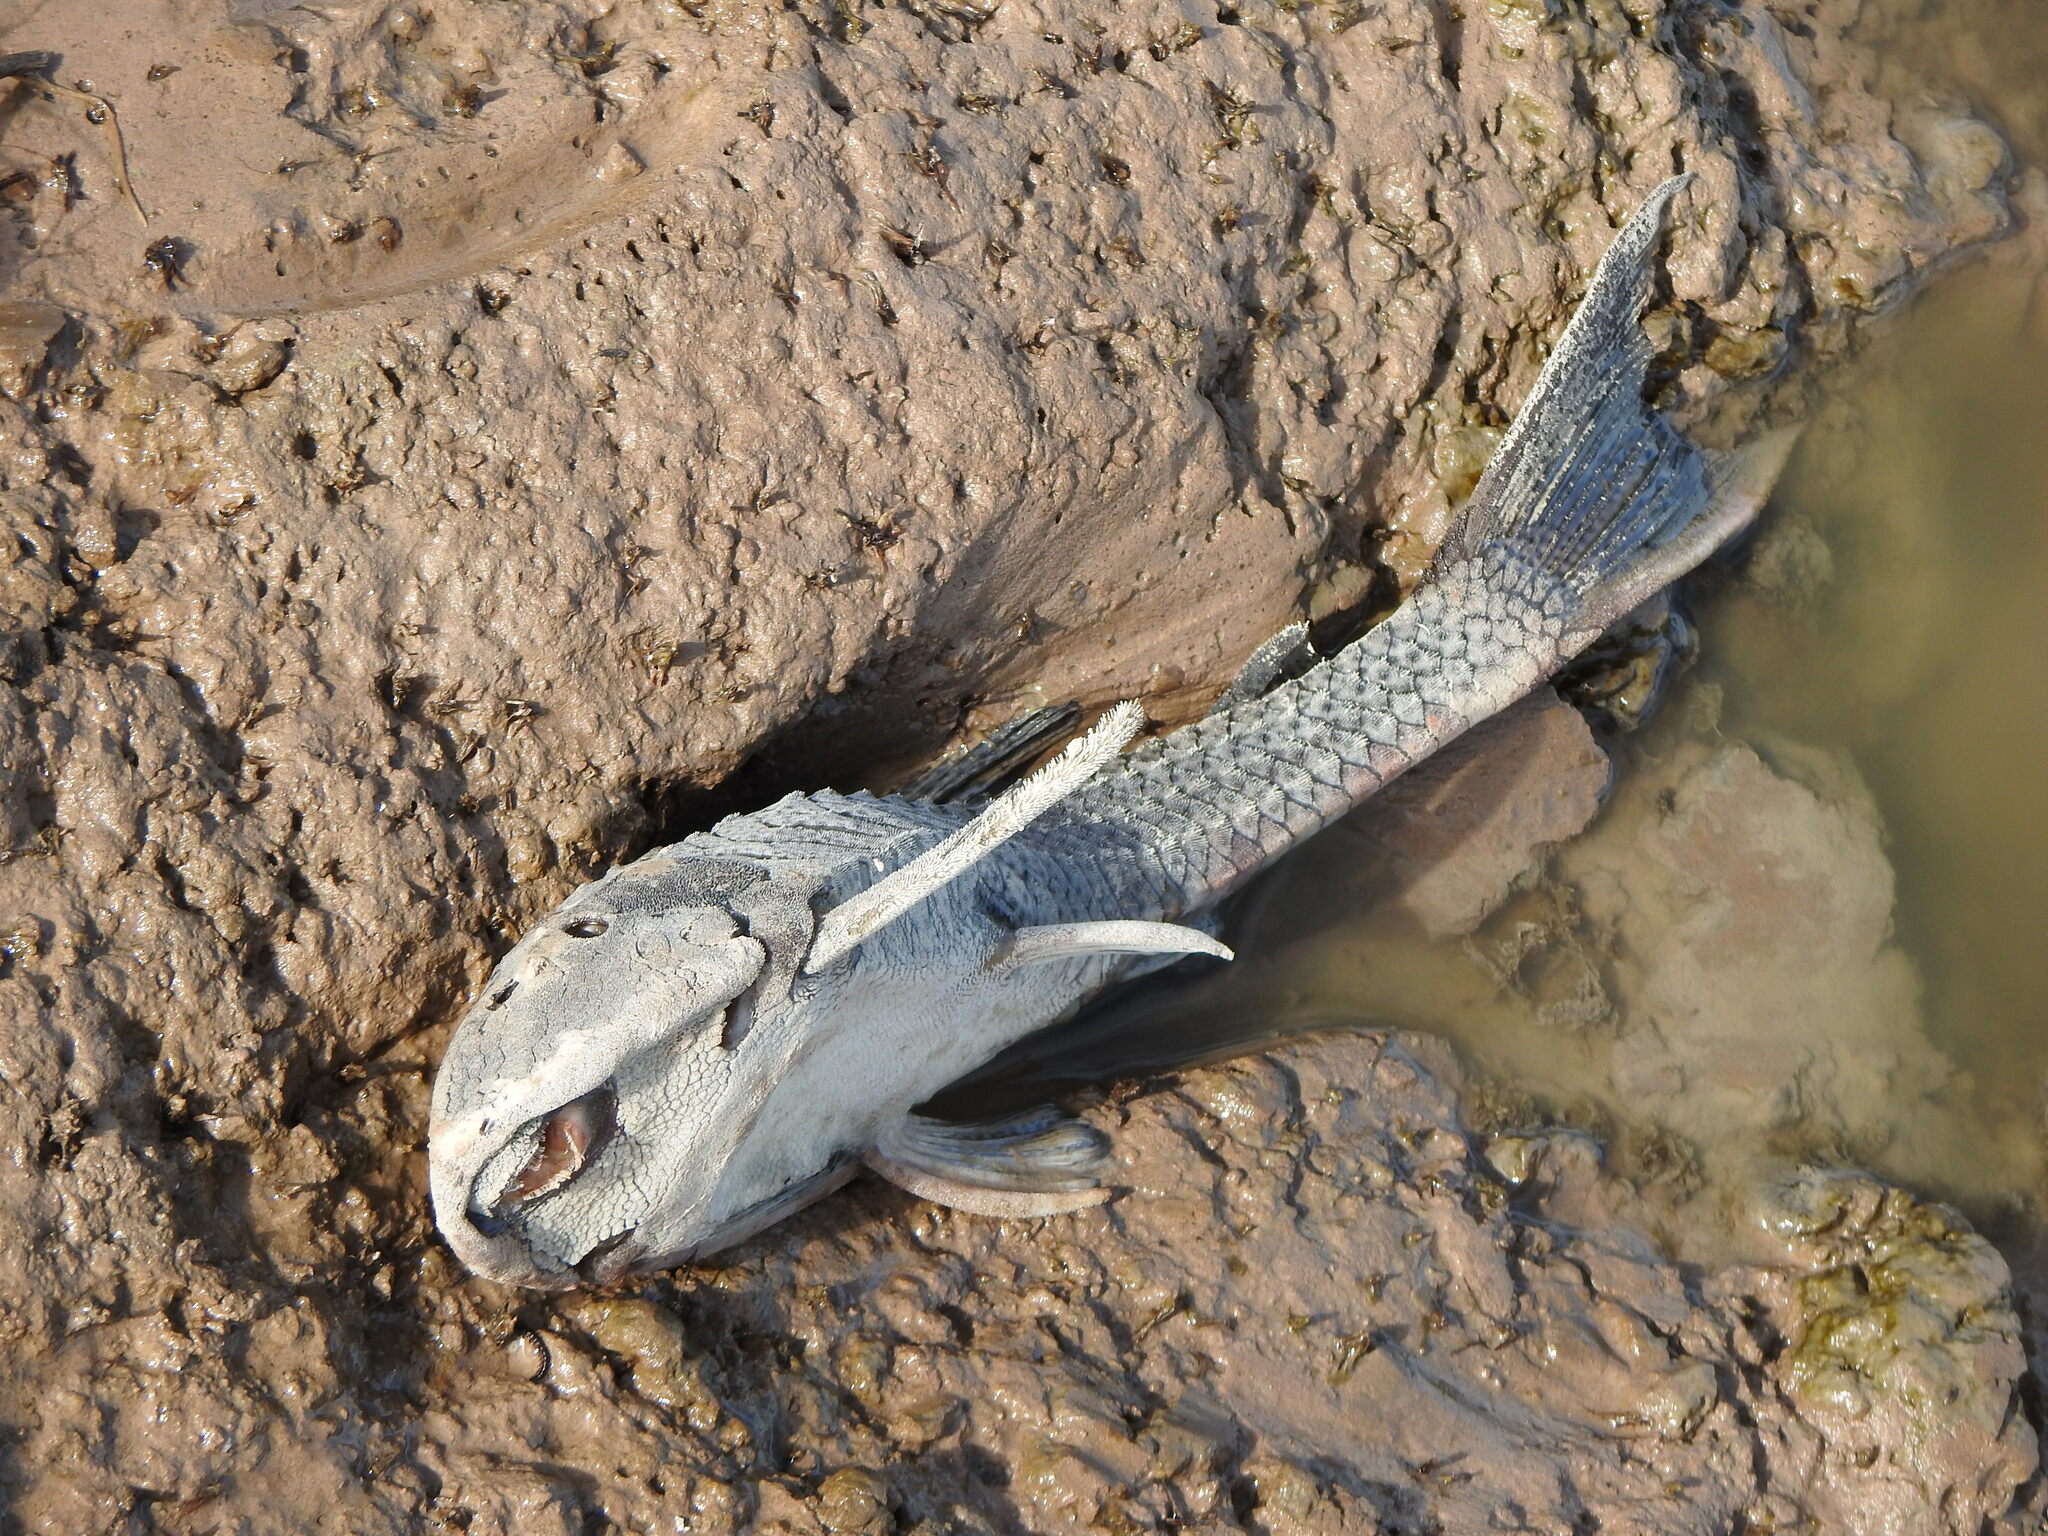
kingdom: Animalia
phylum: Chordata
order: Siluriformes
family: Loricariidae
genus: Hypostomus
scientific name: Hypostomus commersoni
